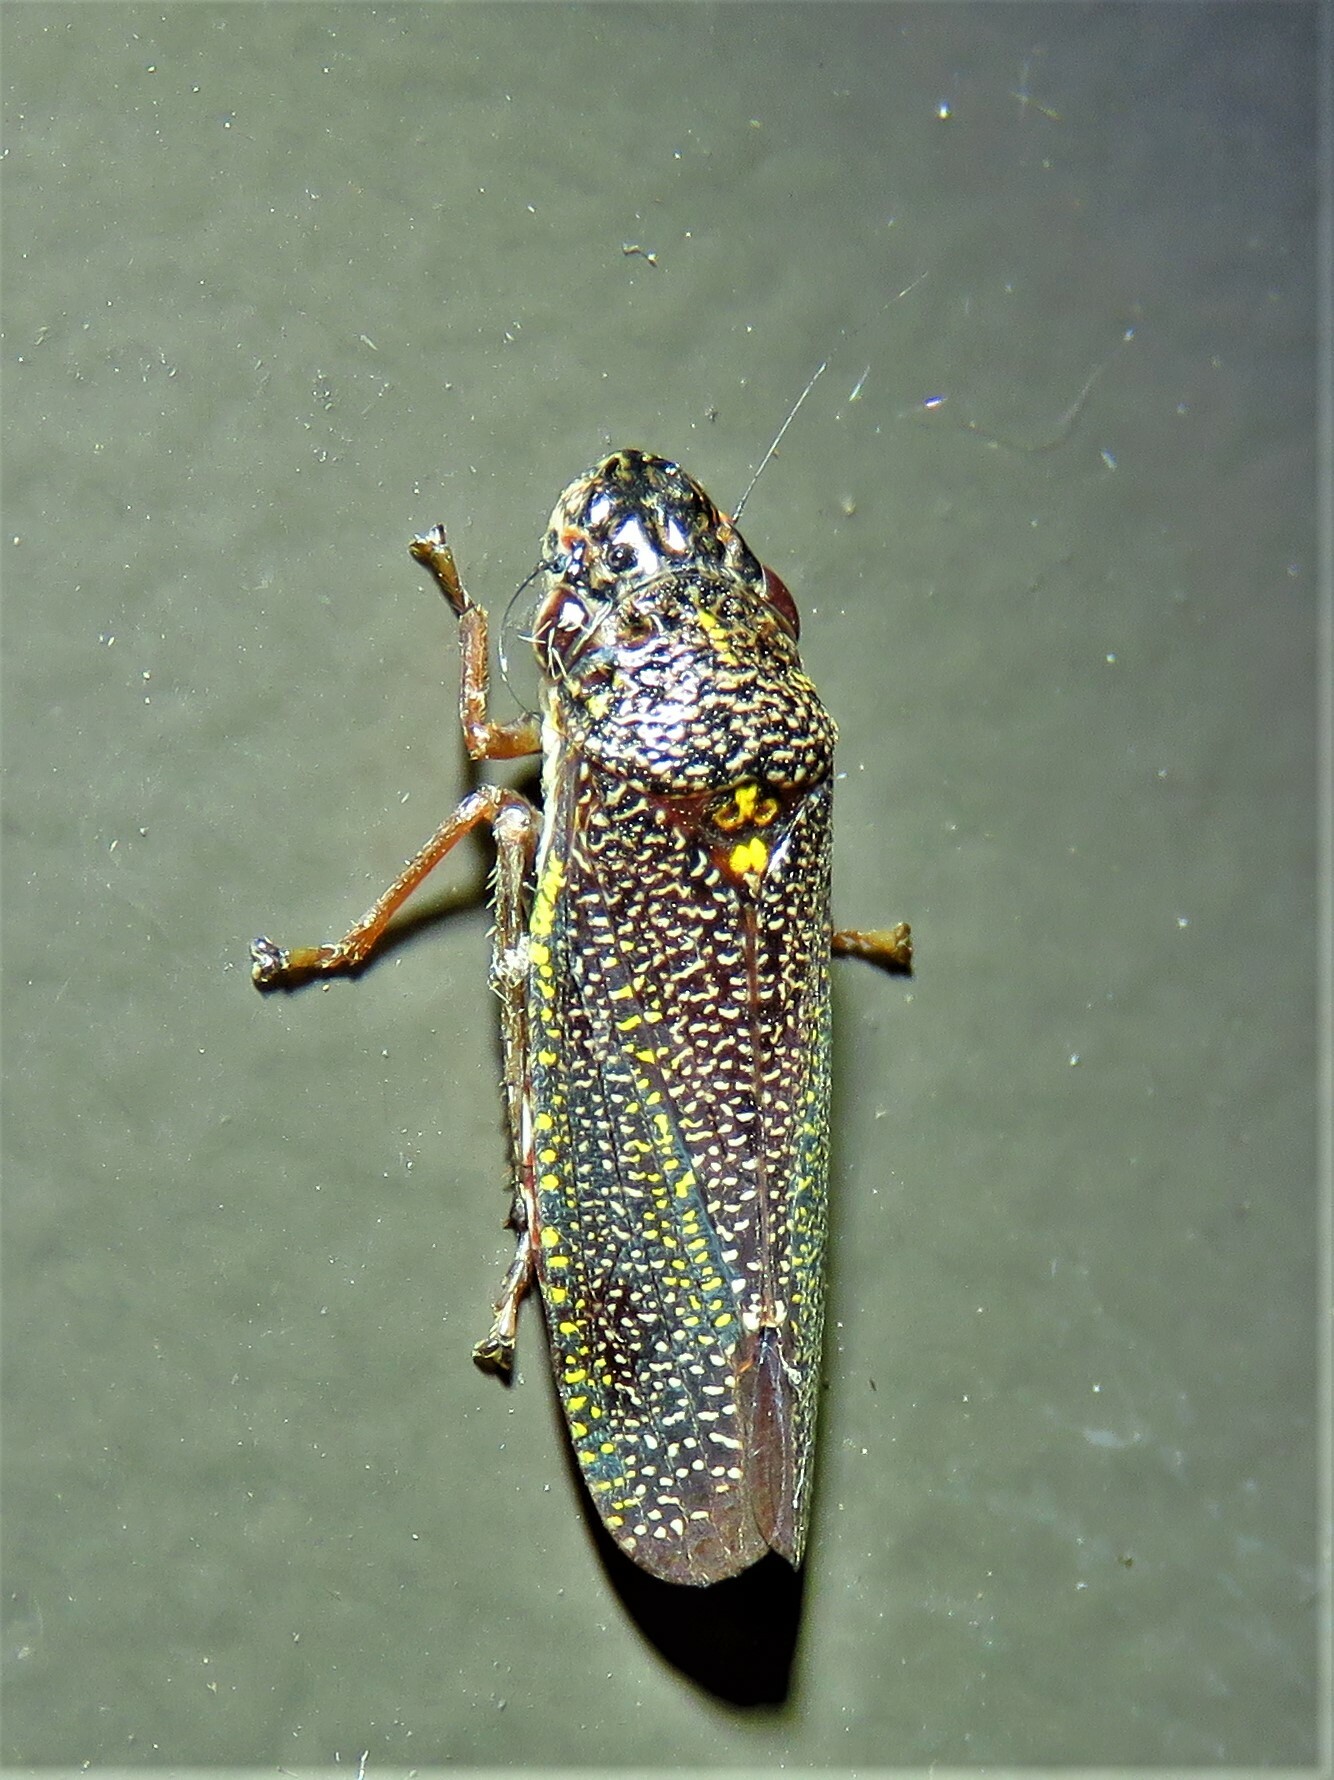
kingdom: Animalia
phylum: Arthropoda
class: Insecta
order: Hemiptera
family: Cicadellidae
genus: Paraulacizes
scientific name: Paraulacizes irrorata
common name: Speckled sharpshooter
